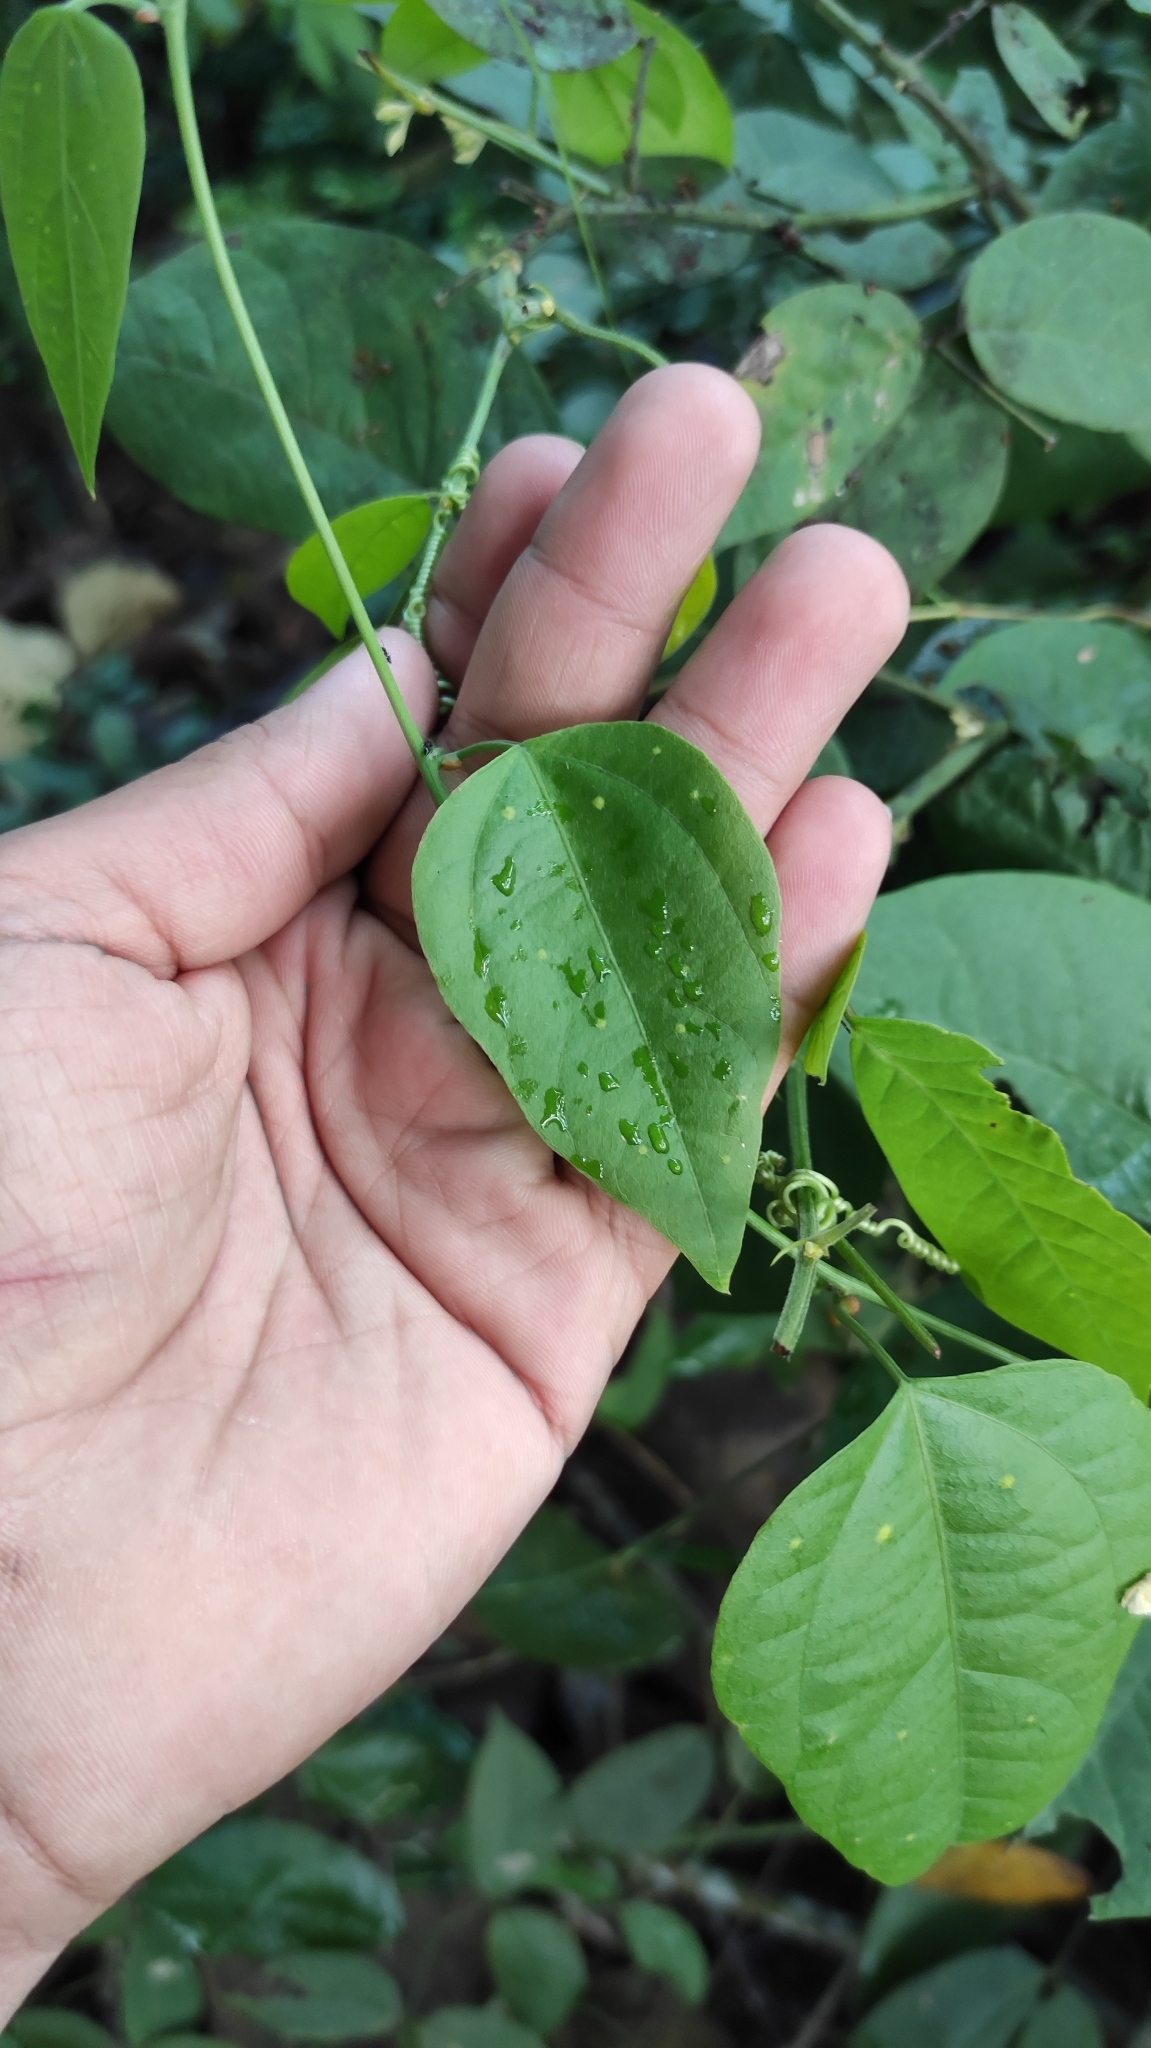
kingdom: Plantae
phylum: Tracheophyta
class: Magnoliopsida
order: Malpighiales
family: Passifloraceae
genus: Passiflora
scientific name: Passiflora auriculata
